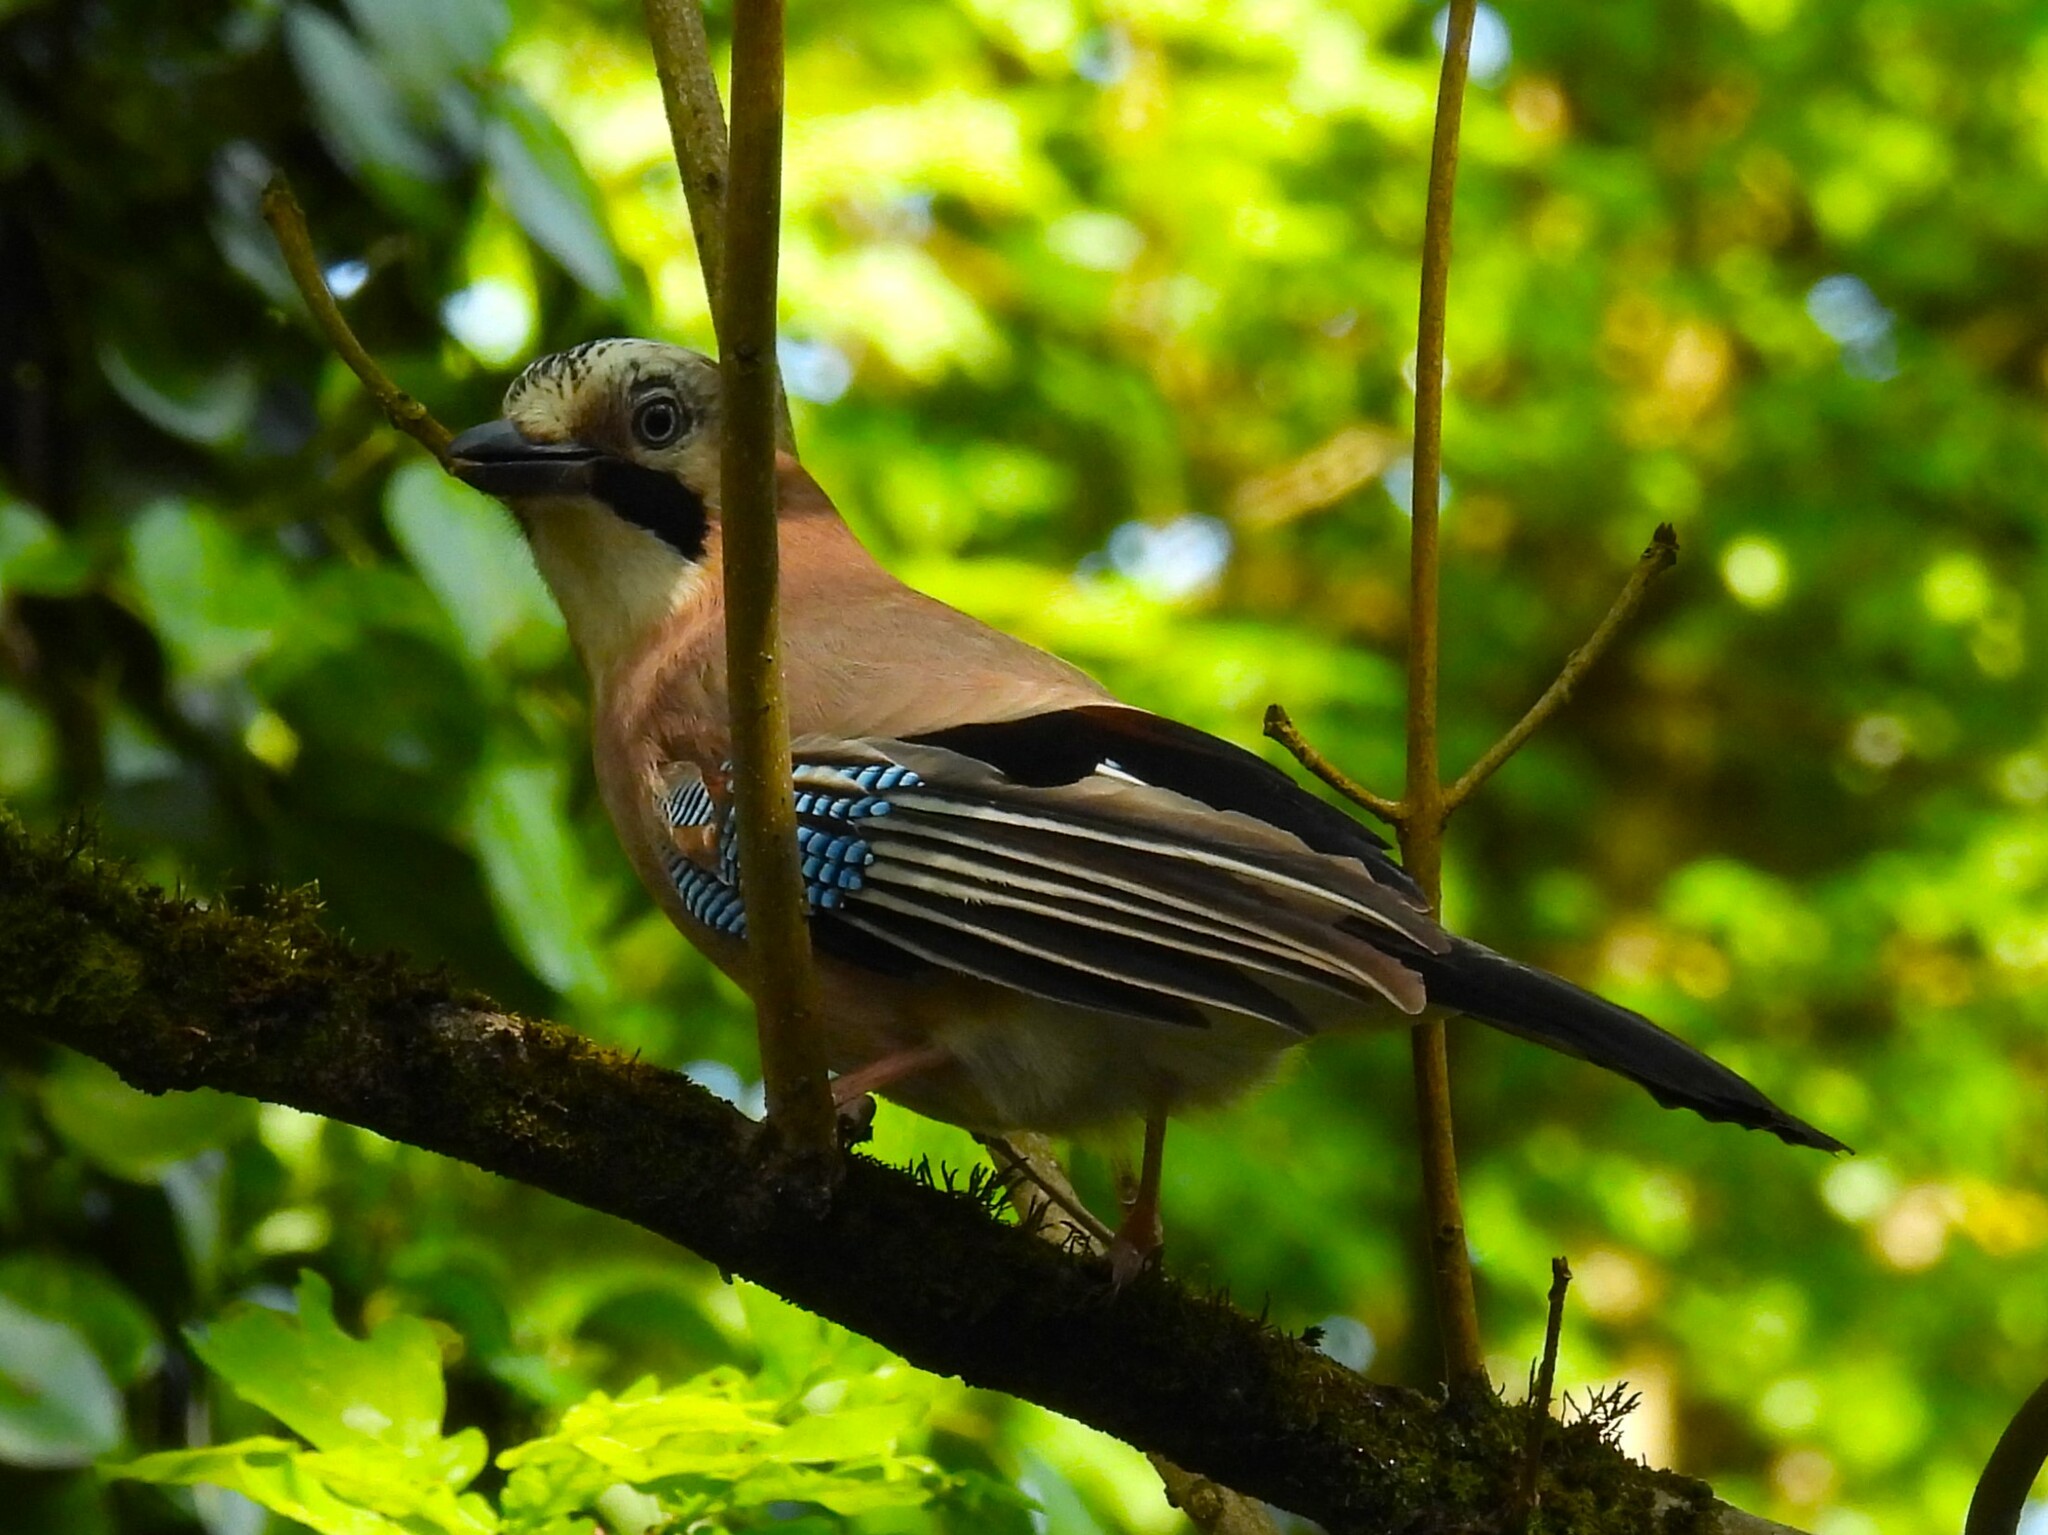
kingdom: Animalia
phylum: Chordata
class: Aves
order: Passeriformes
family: Corvidae
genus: Garrulus
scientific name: Garrulus glandarius
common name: Eurasian jay
